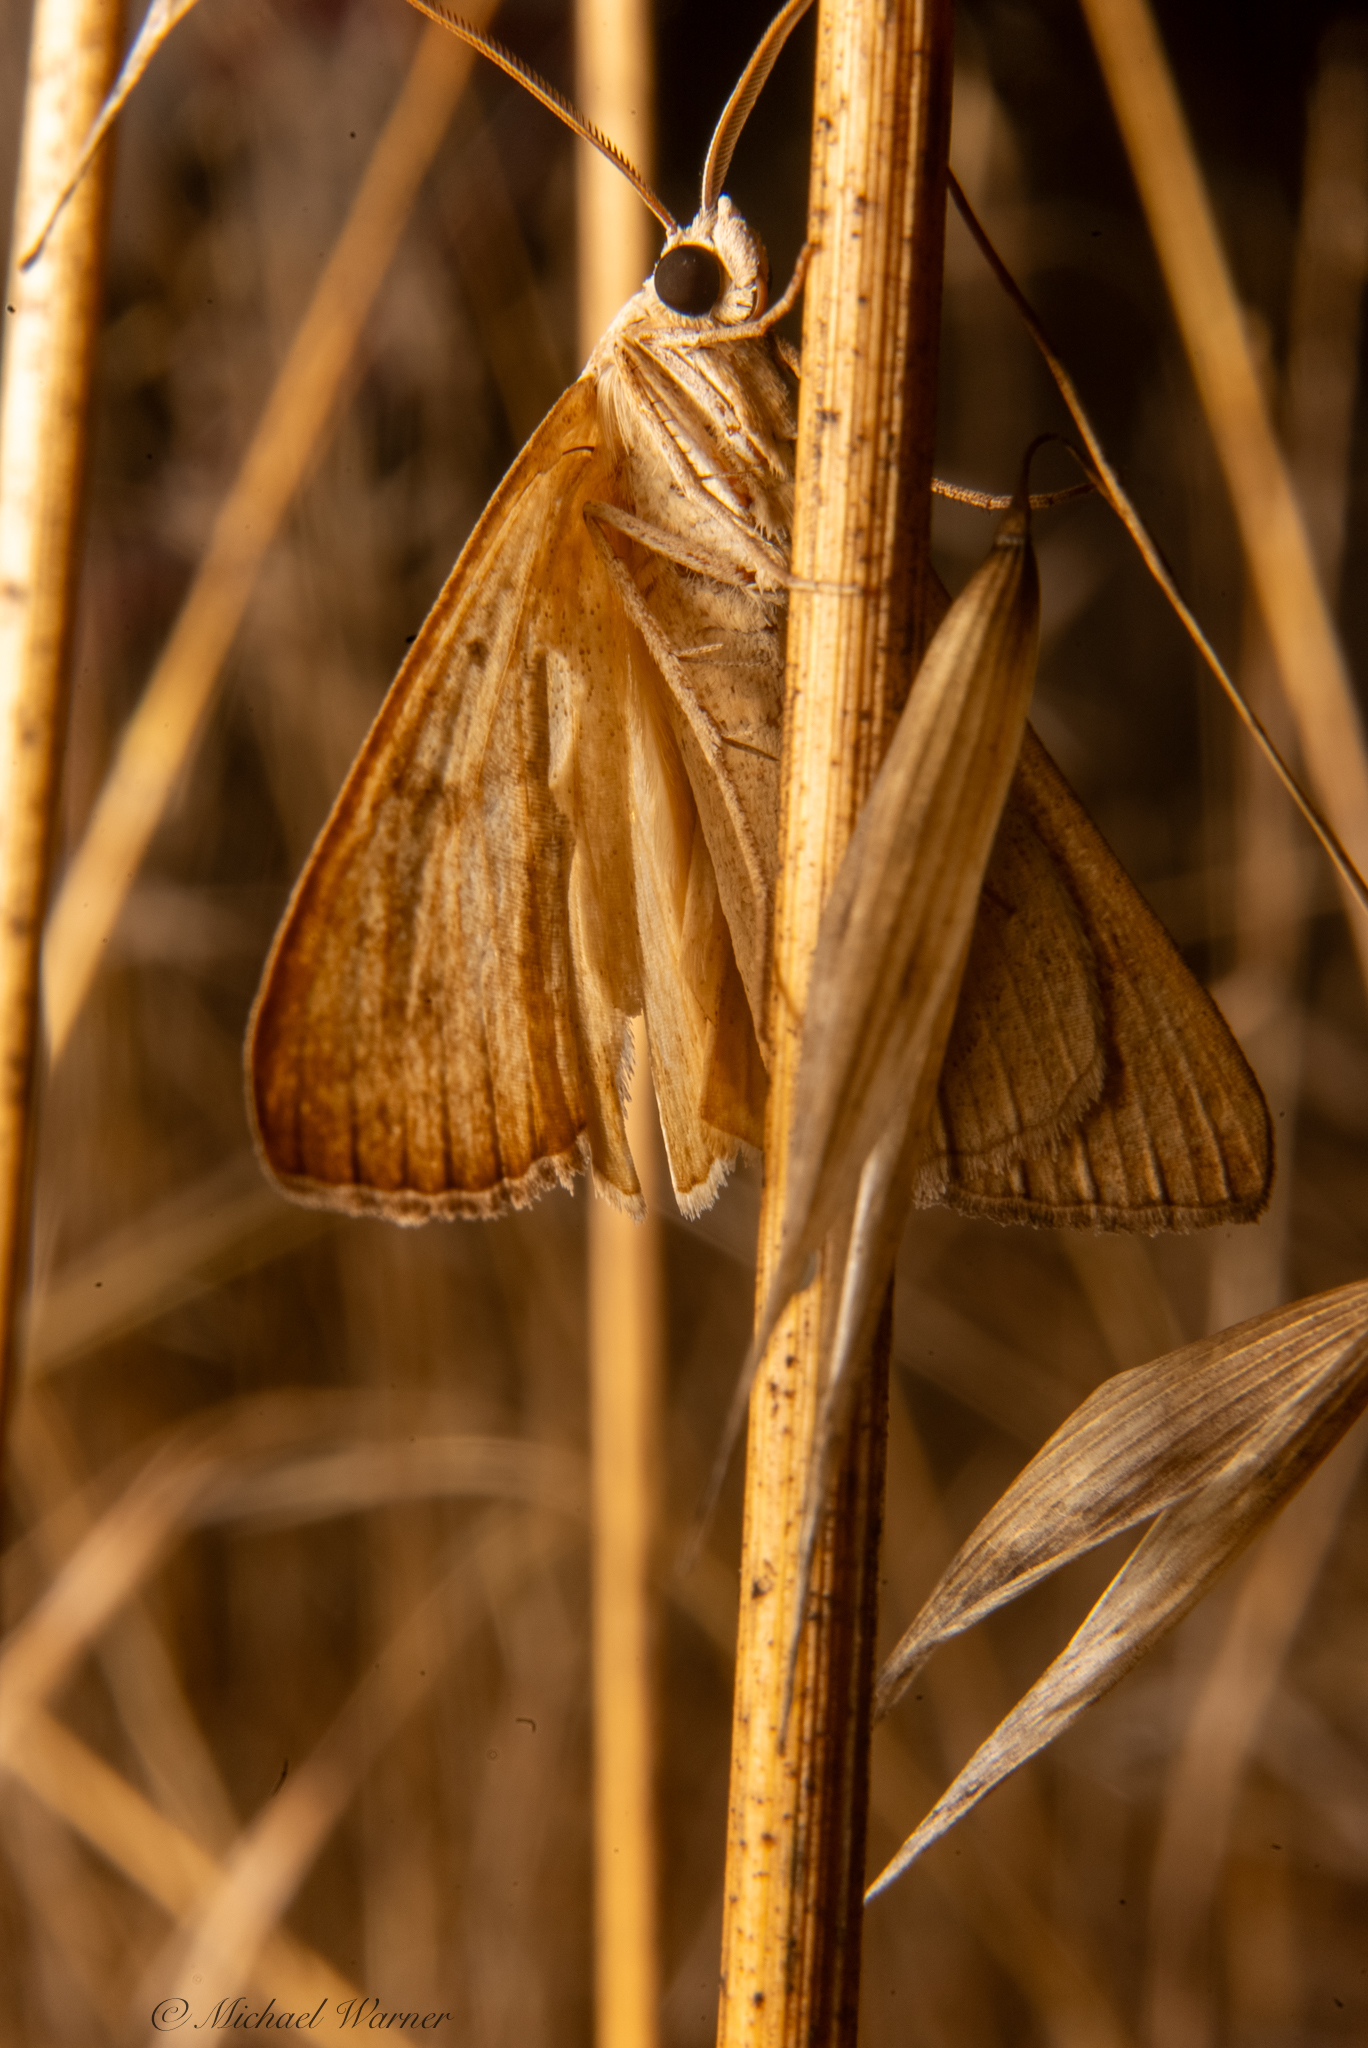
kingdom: Animalia
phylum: Arthropoda
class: Insecta
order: Lepidoptera
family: Erebidae
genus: Caenurgia
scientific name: Caenurgia togataria
